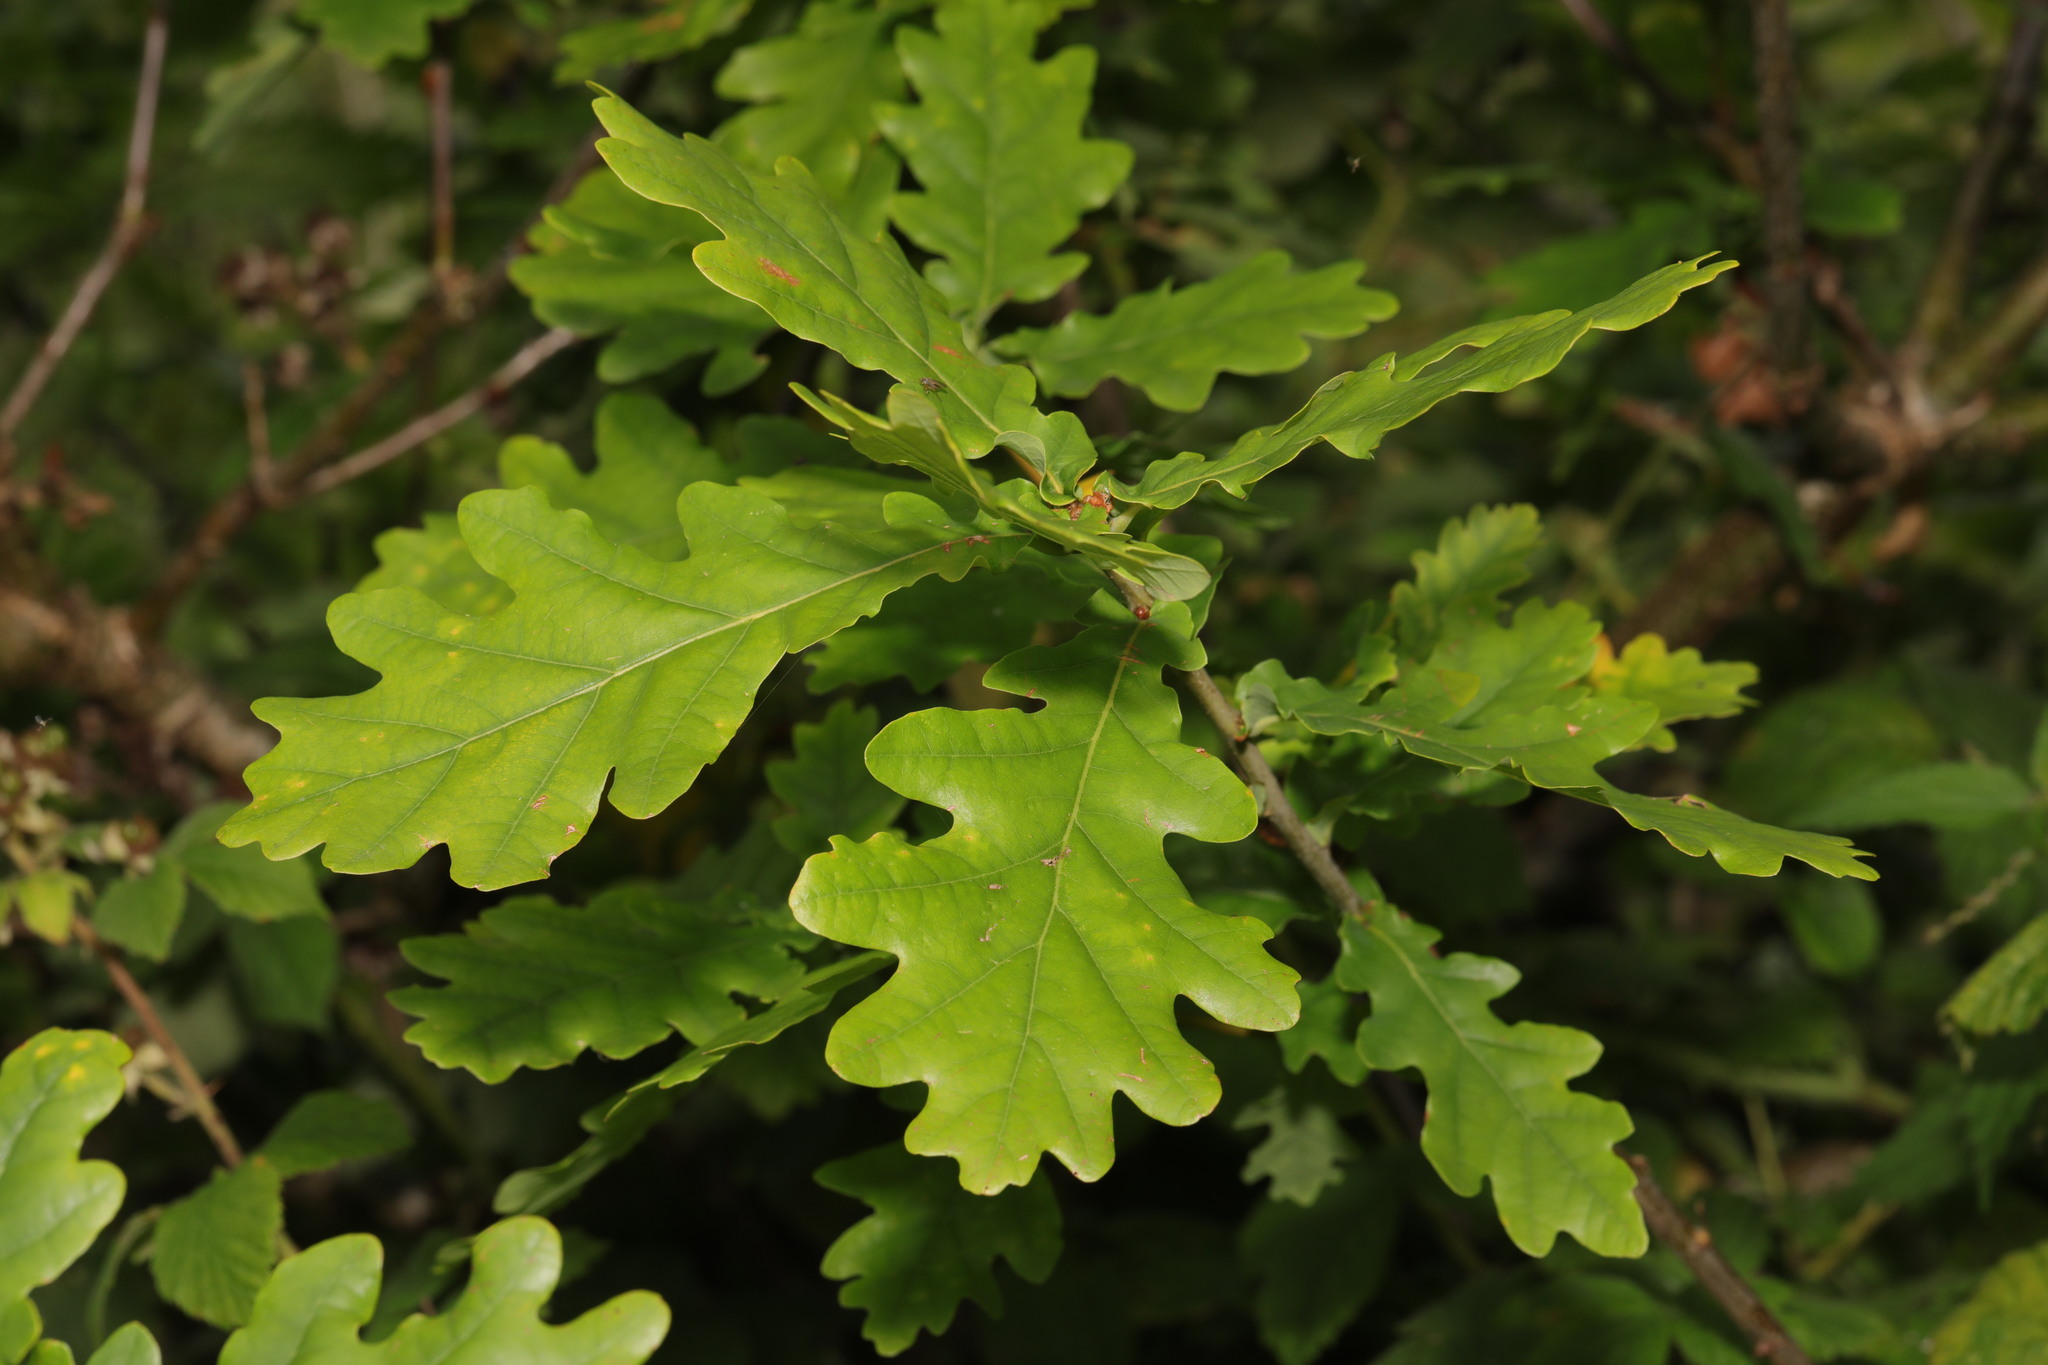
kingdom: Plantae
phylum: Tracheophyta
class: Magnoliopsida
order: Fagales
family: Fagaceae
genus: Quercus
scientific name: Quercus robur
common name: Pedunculate oak
